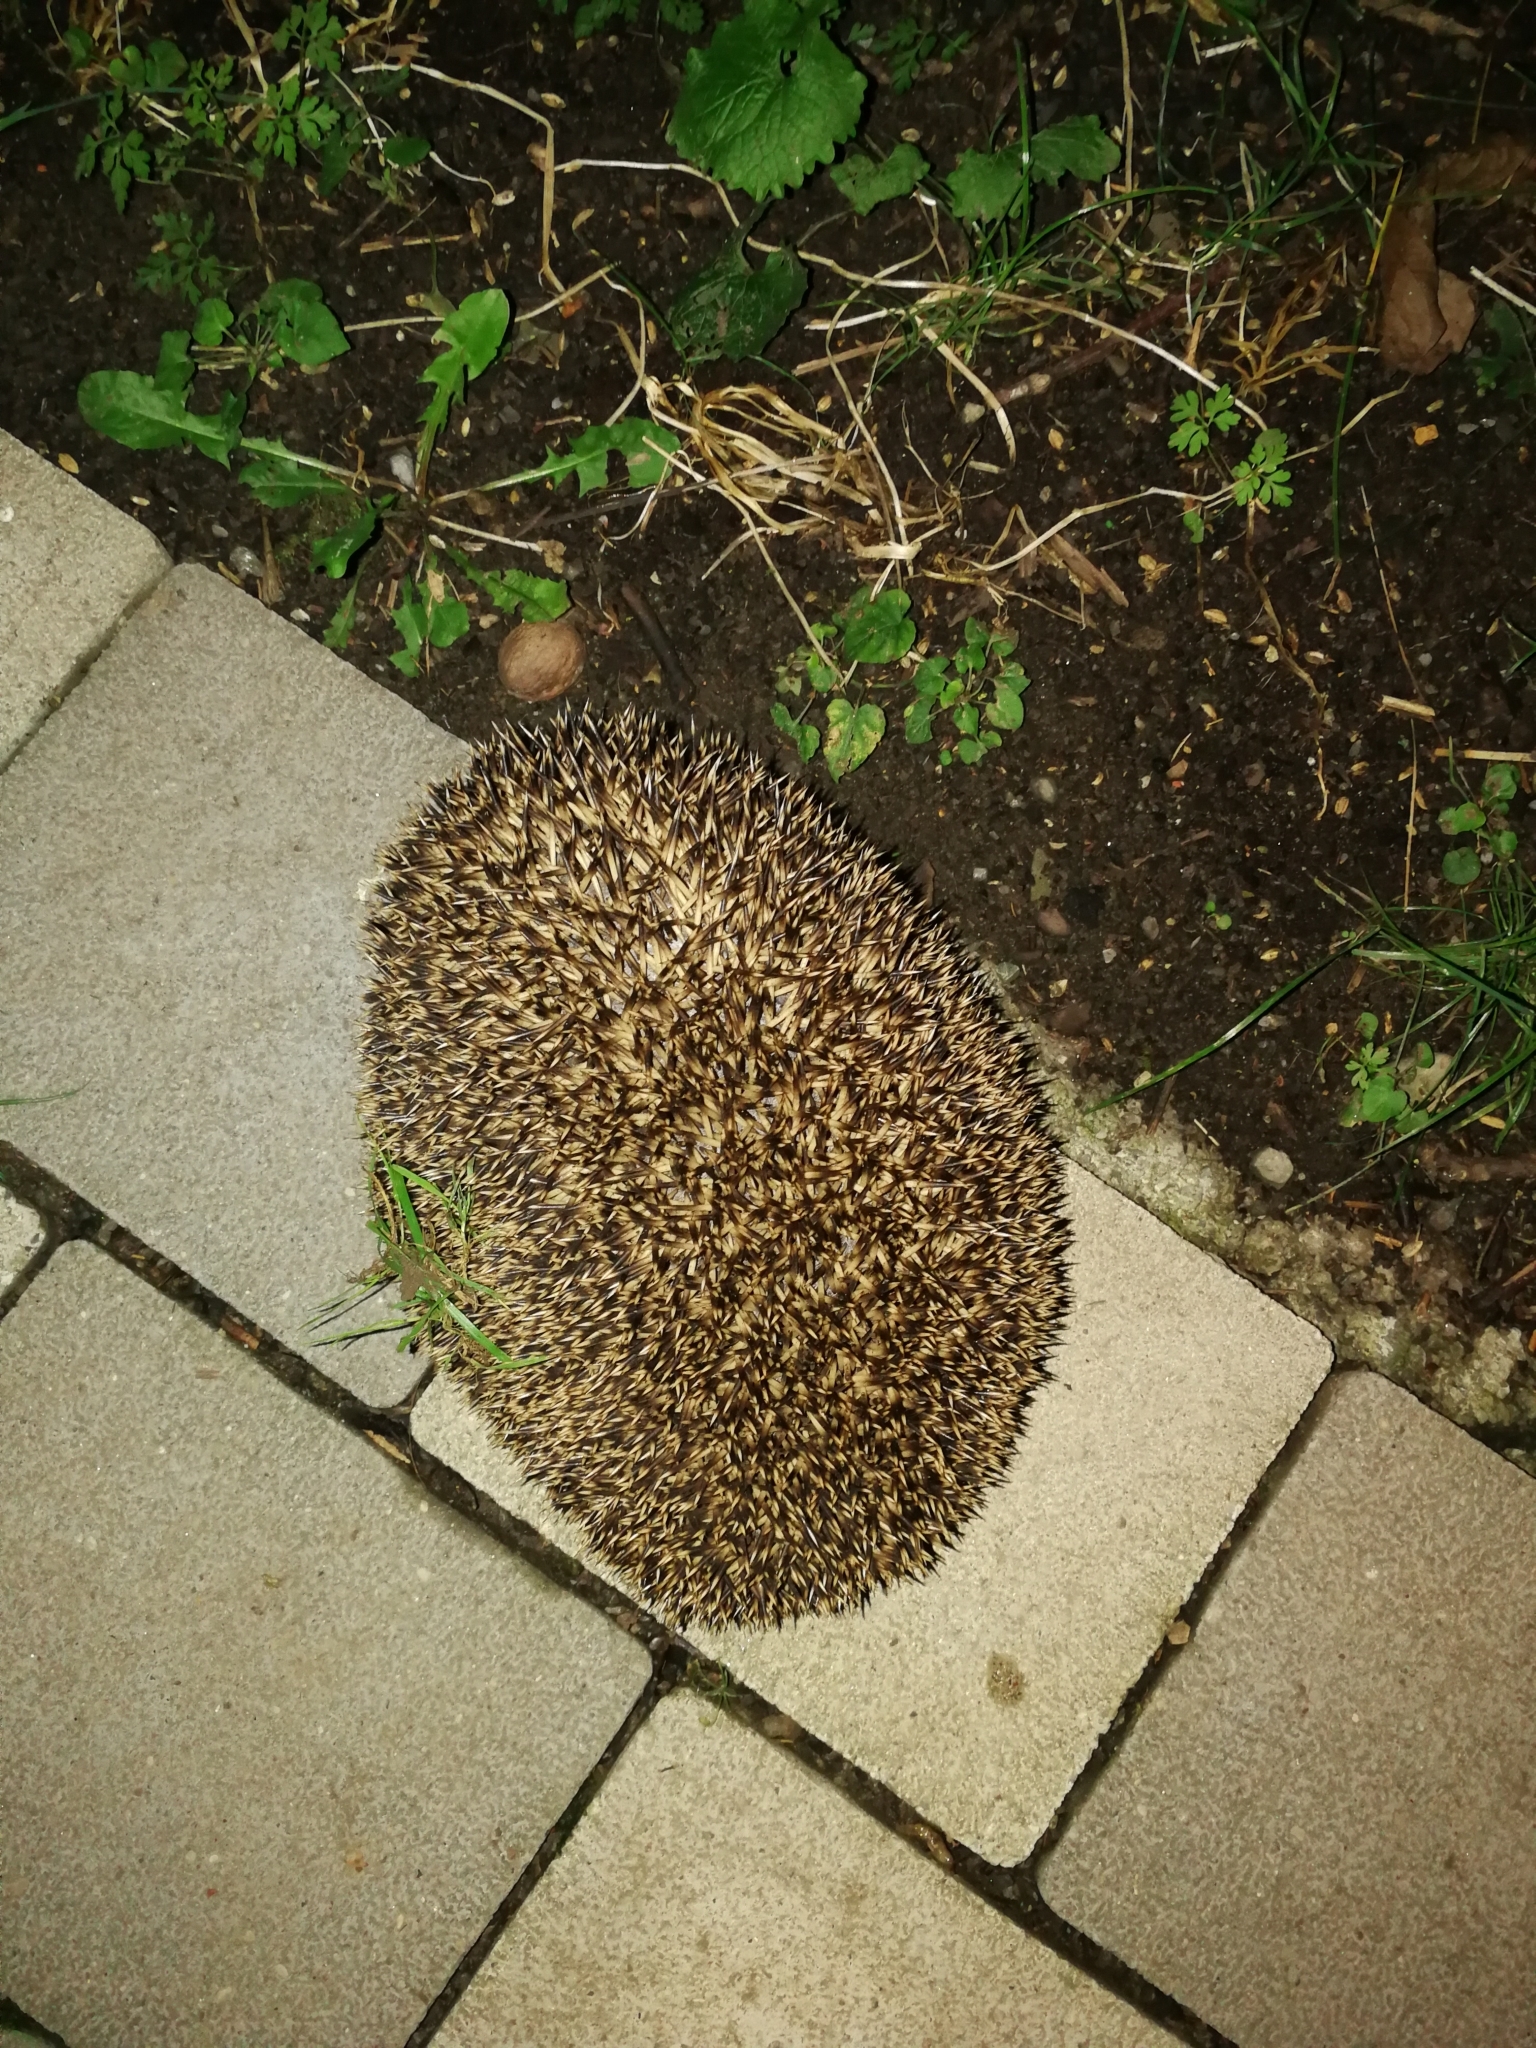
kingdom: Animalia
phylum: Chordata
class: Mammalia
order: Erinaceomorpha
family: Erinaceidae
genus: Erinaceus
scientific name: Erinaceus europaeus
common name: West european hedgehog
